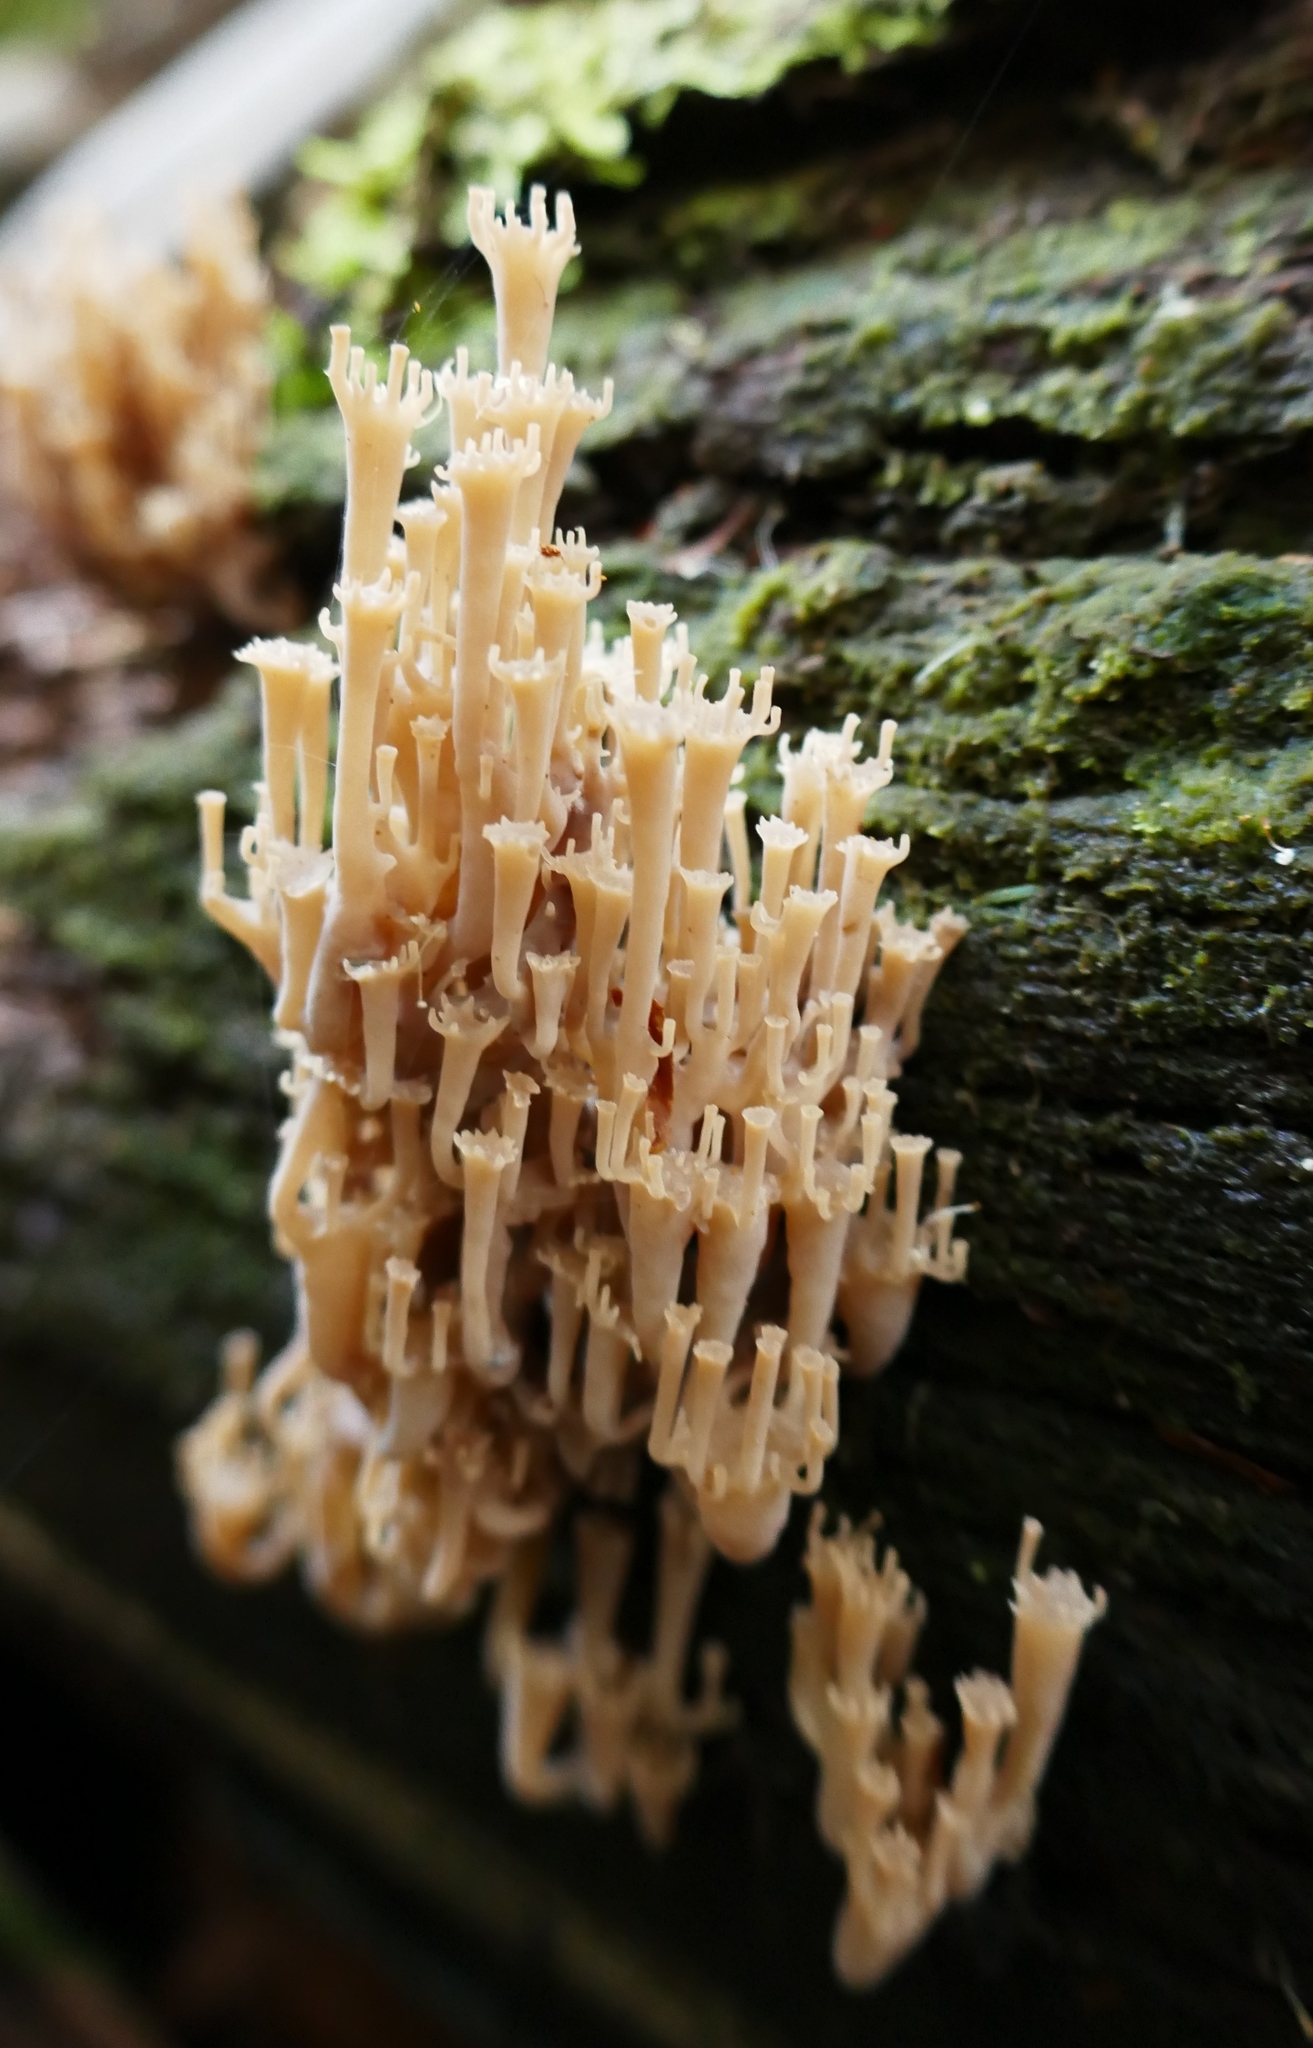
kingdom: Fungi
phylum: Basidiomycota
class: Agaricomycetes
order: Russulales
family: Auriscalpiaceae
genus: Artomyces
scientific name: Artomyces austropiperatus
